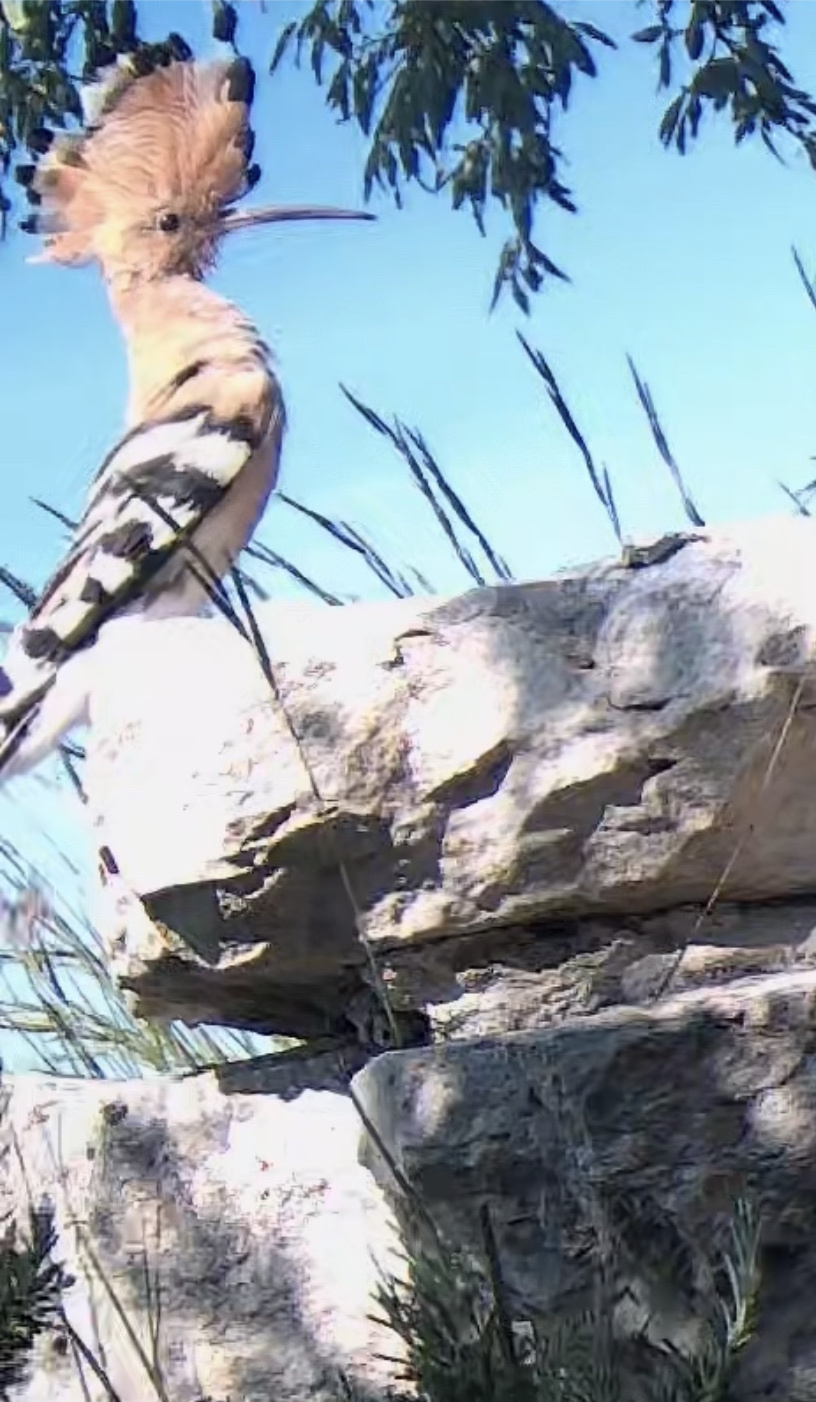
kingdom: Animalia
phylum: Chordata
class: Aves
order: Bucerotiformes
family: Upupidae
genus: Upupa
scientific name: Upupa epops
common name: Eurasian hoopoe
